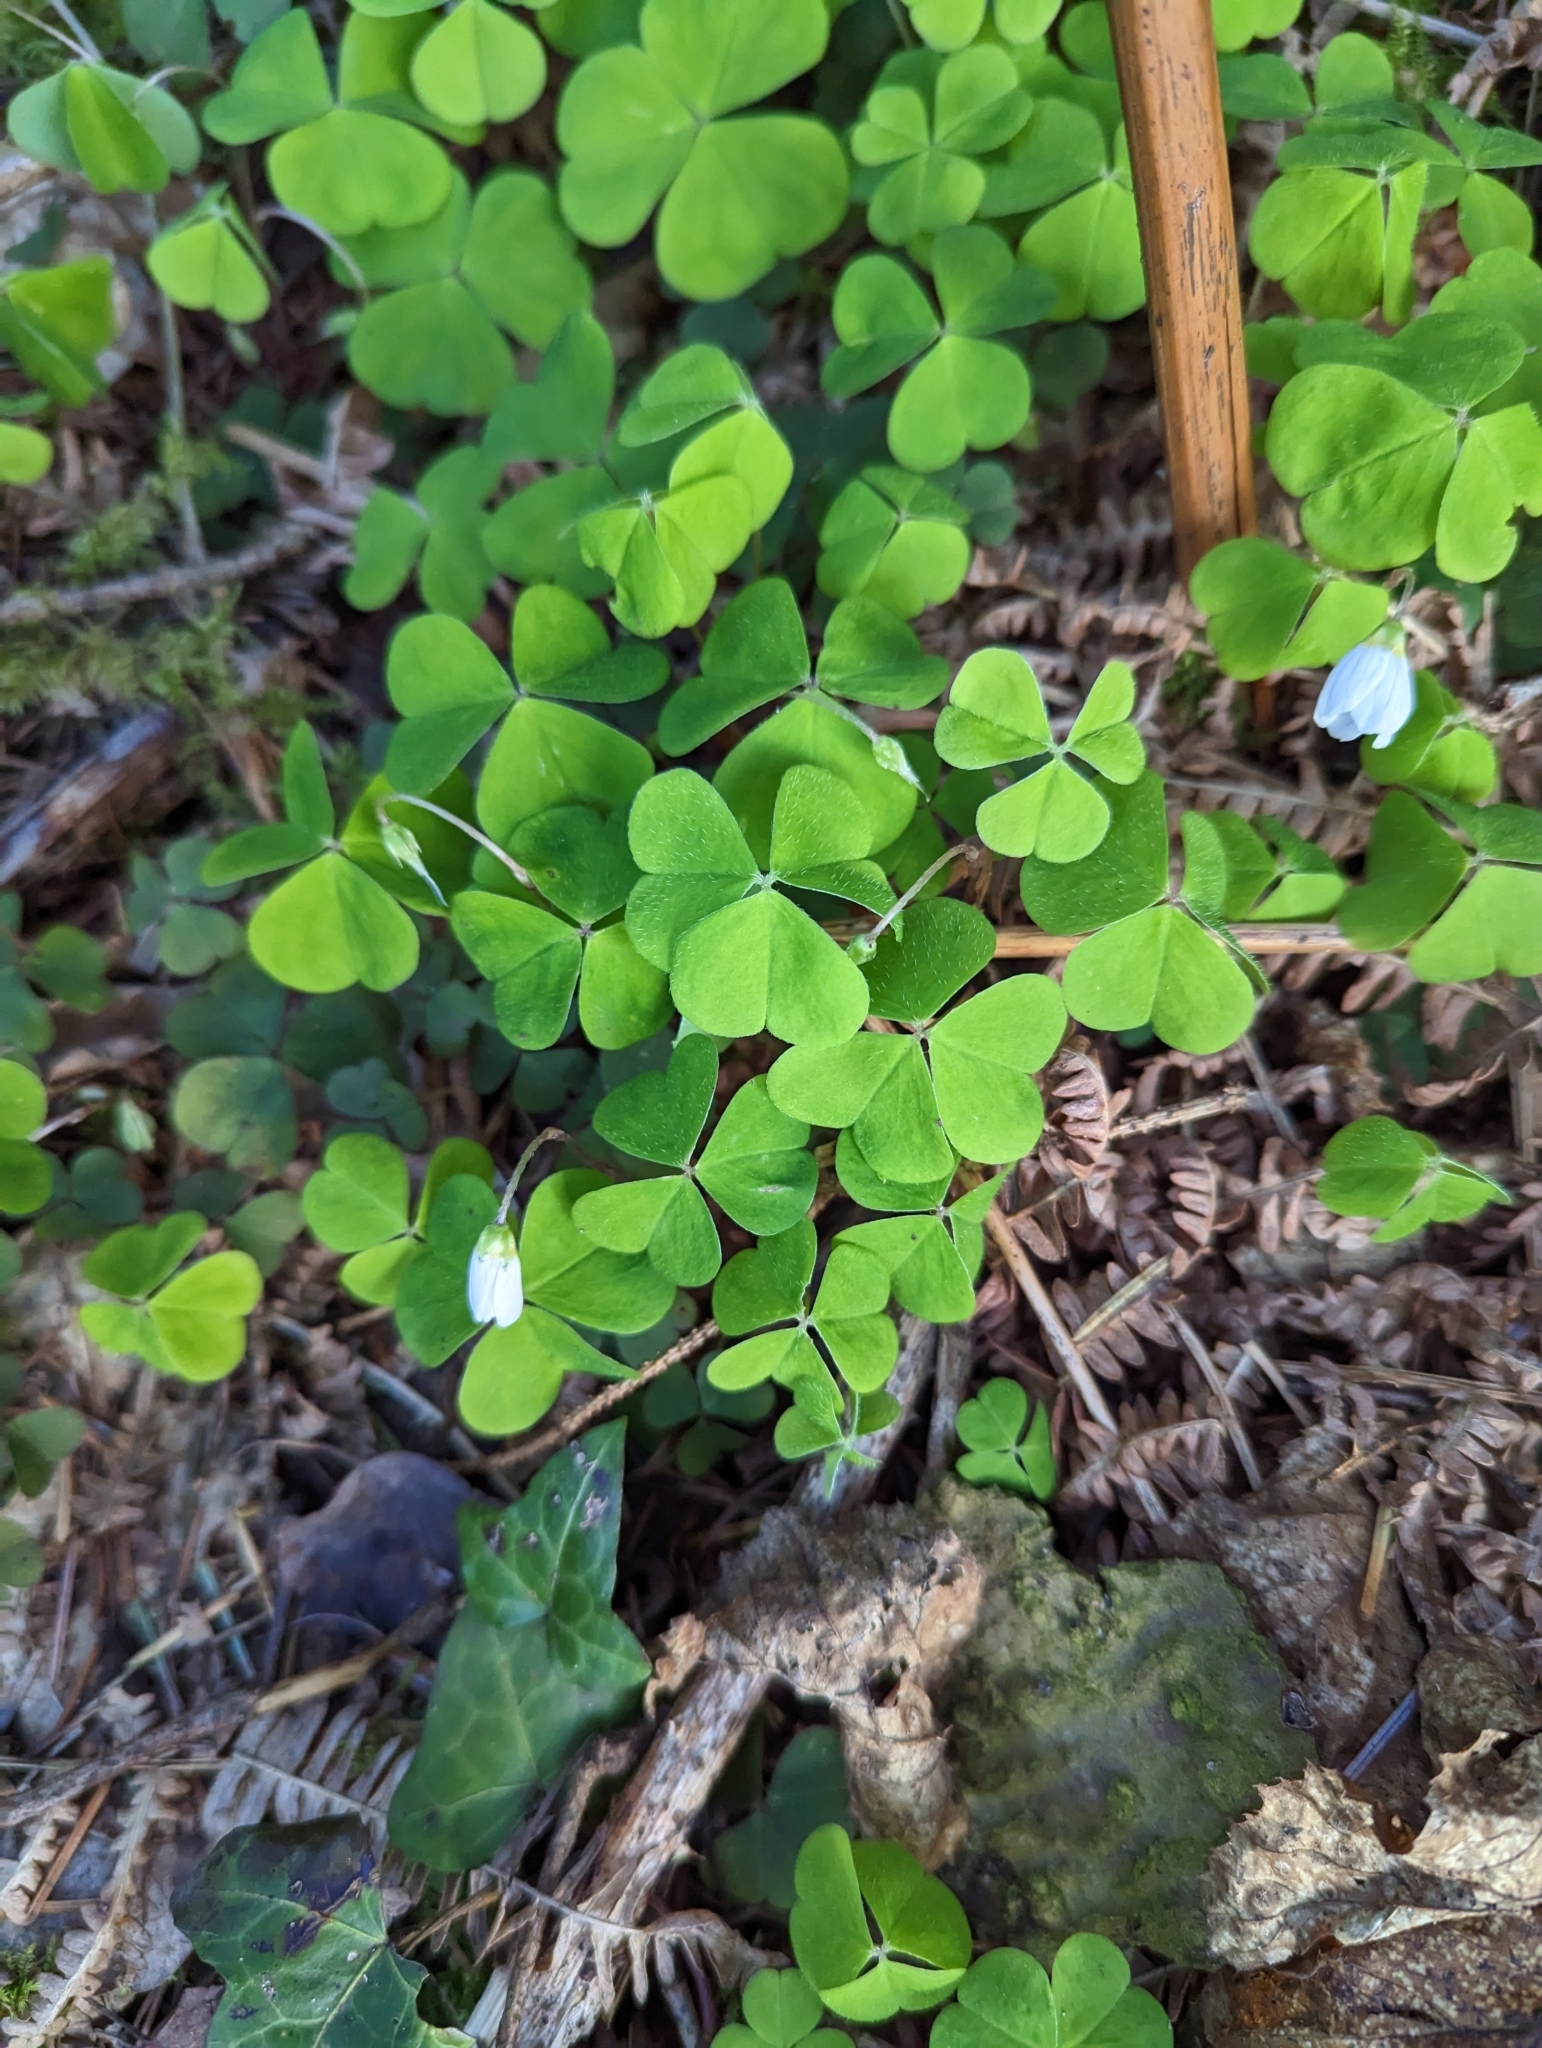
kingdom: Plantae
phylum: Tracheophyta
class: Magnoliopsida
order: Oxalidales
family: Oxalidaceae
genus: Oxalis
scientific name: Oxalis acetosella
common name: Wood-sorrel
